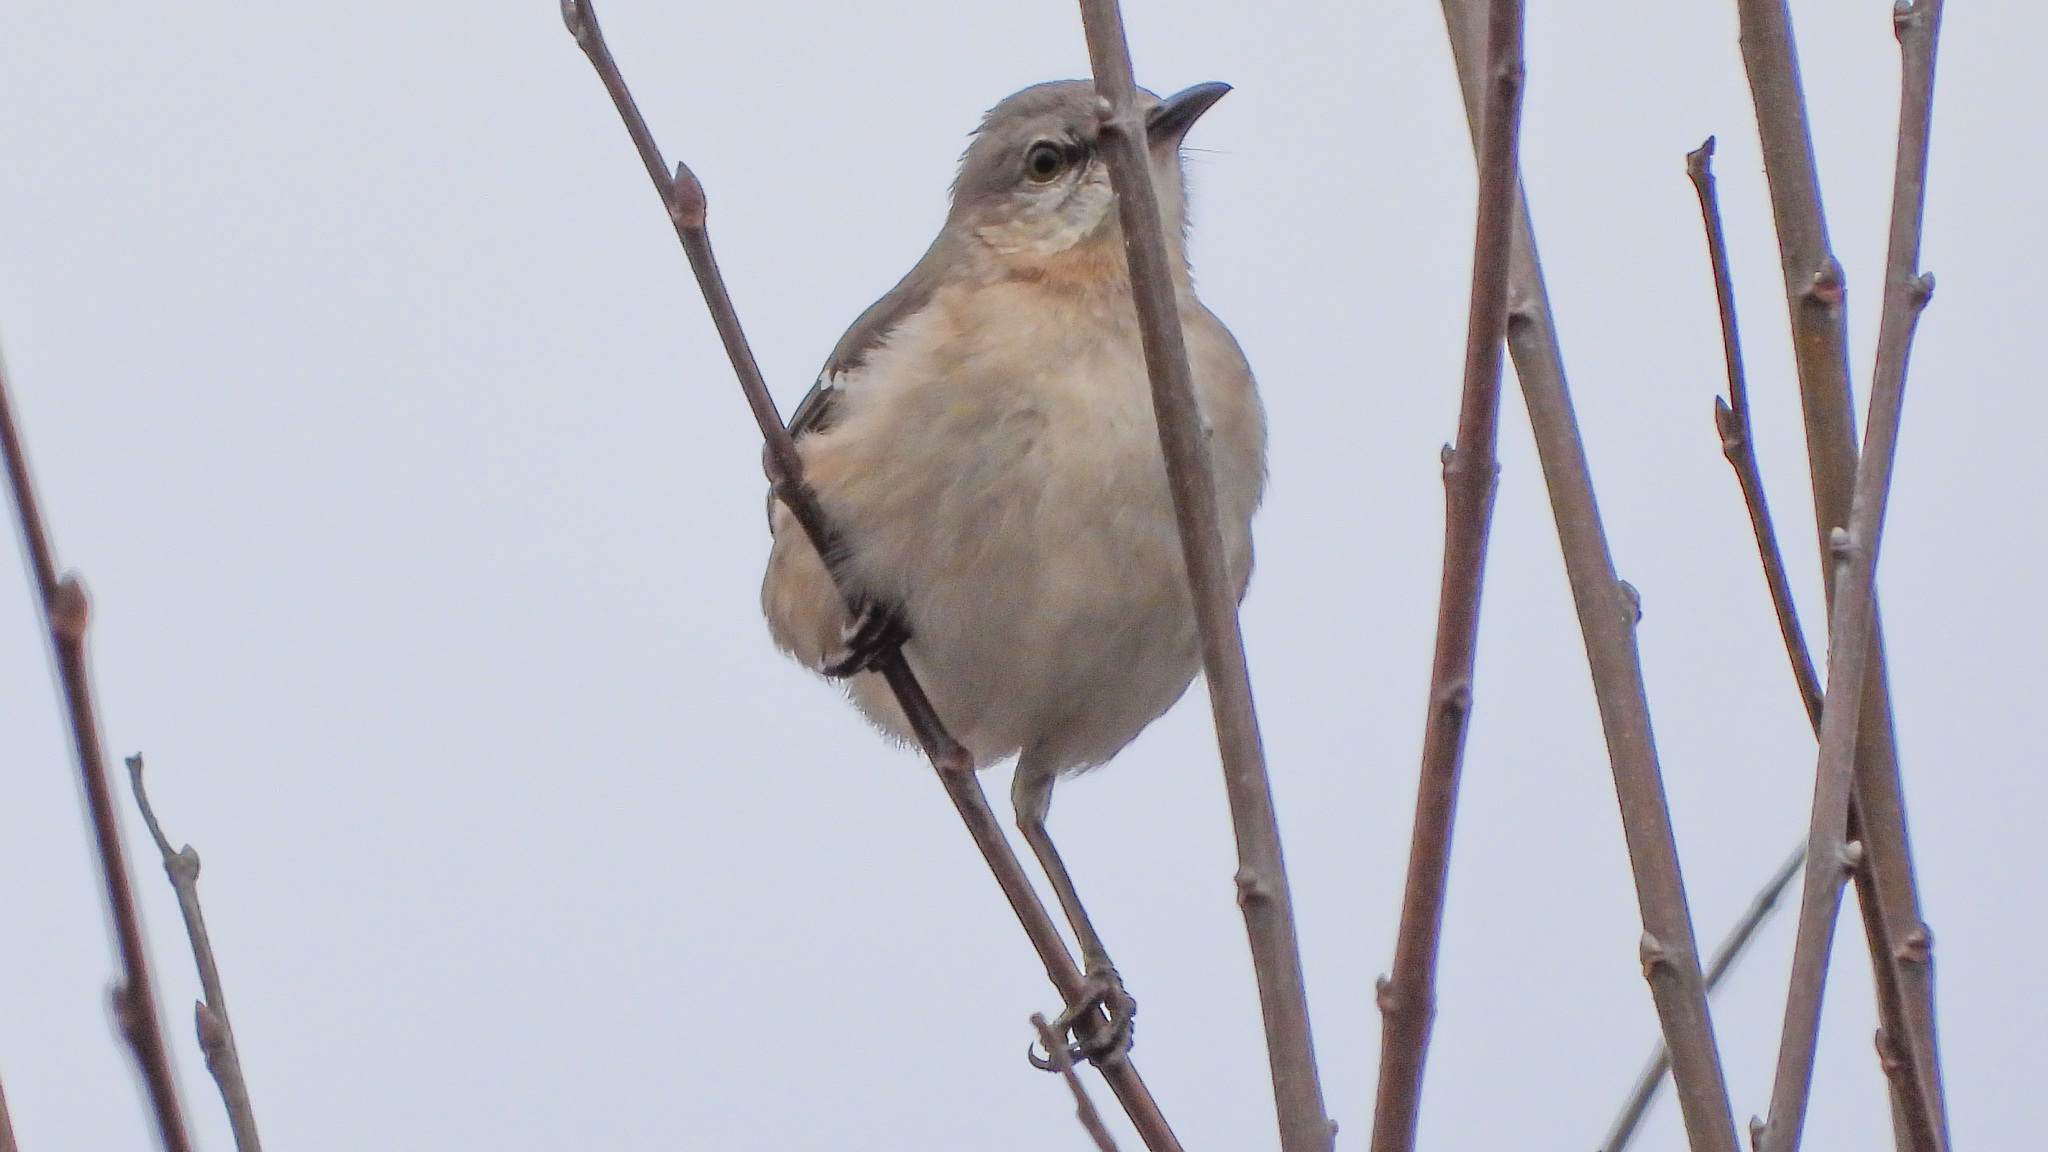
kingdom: Animalia
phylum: Chordata
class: Aves
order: Passeriformes
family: Mimidae
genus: Mimus
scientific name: Mimus polyglottos
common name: Northern mockingbird
